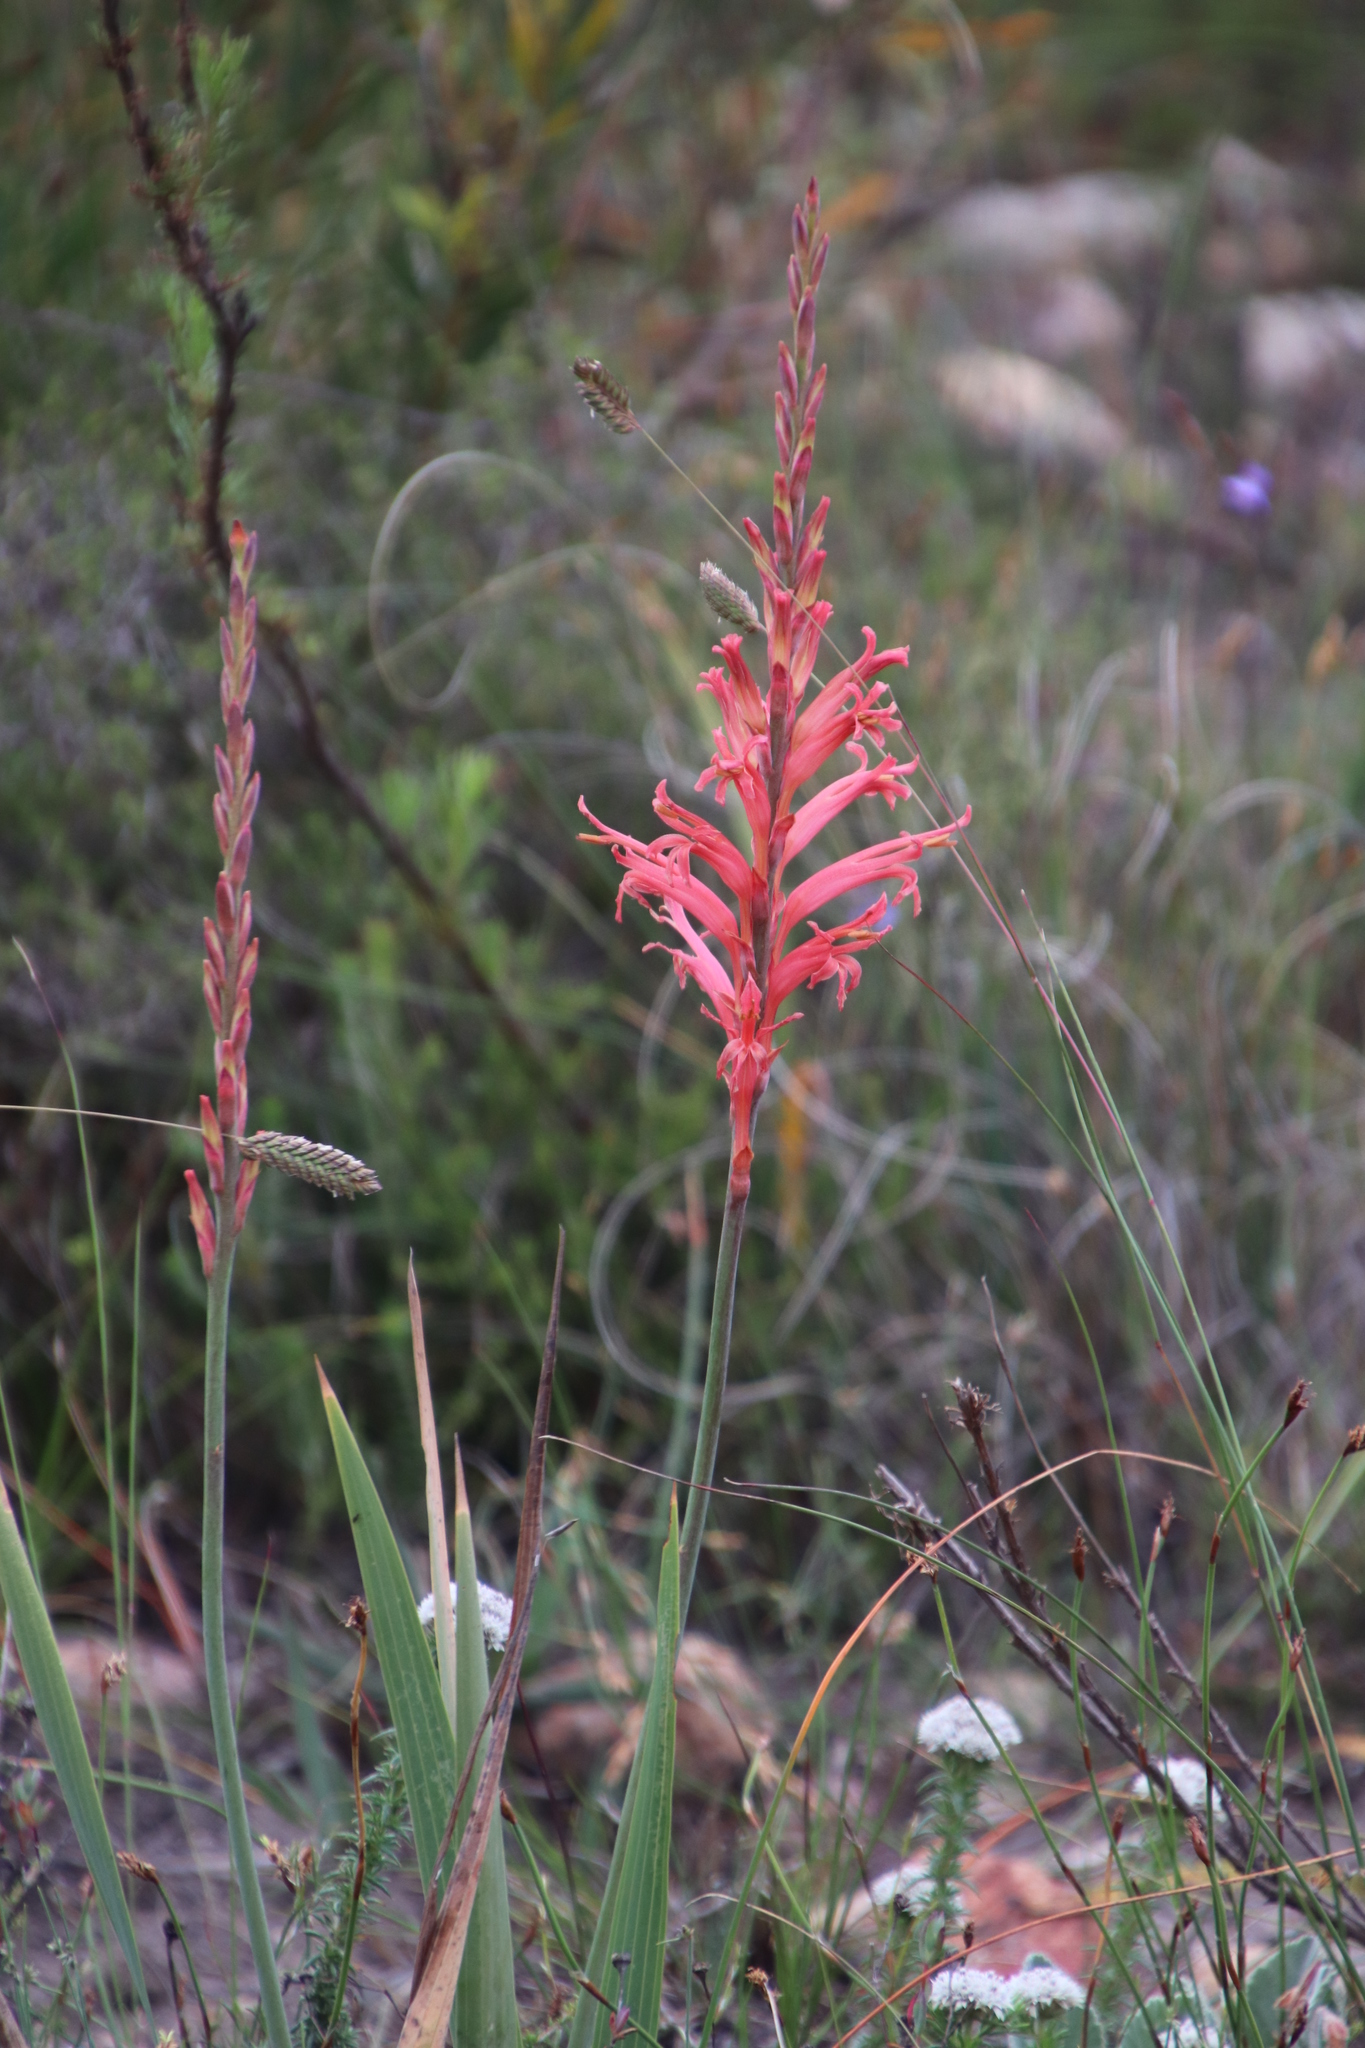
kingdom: Plantae
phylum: Tracheophyta
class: Liliopsida
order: Asparagales
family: Iridaceae
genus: Tritoniopsis
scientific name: Tritoniopsis antholyza
